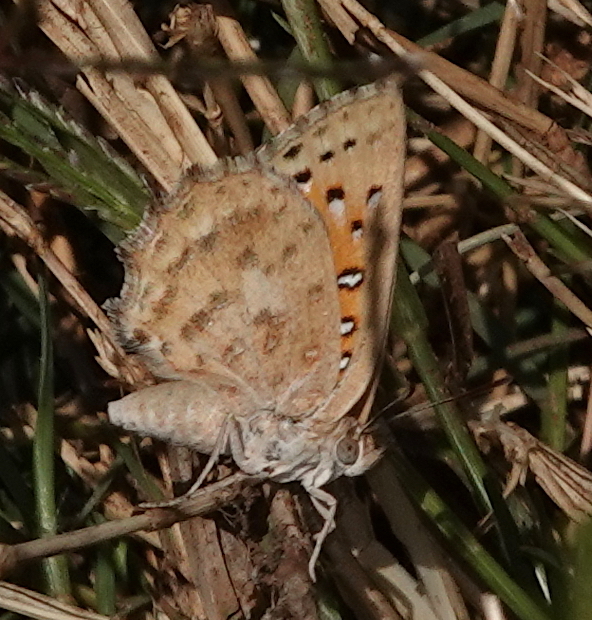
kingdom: Animalia
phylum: Arthropoda
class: Insecta
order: Lepidoptera
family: Lycaenidae
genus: Aloeides
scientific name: Aloeides damarensis
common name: Damara russet
